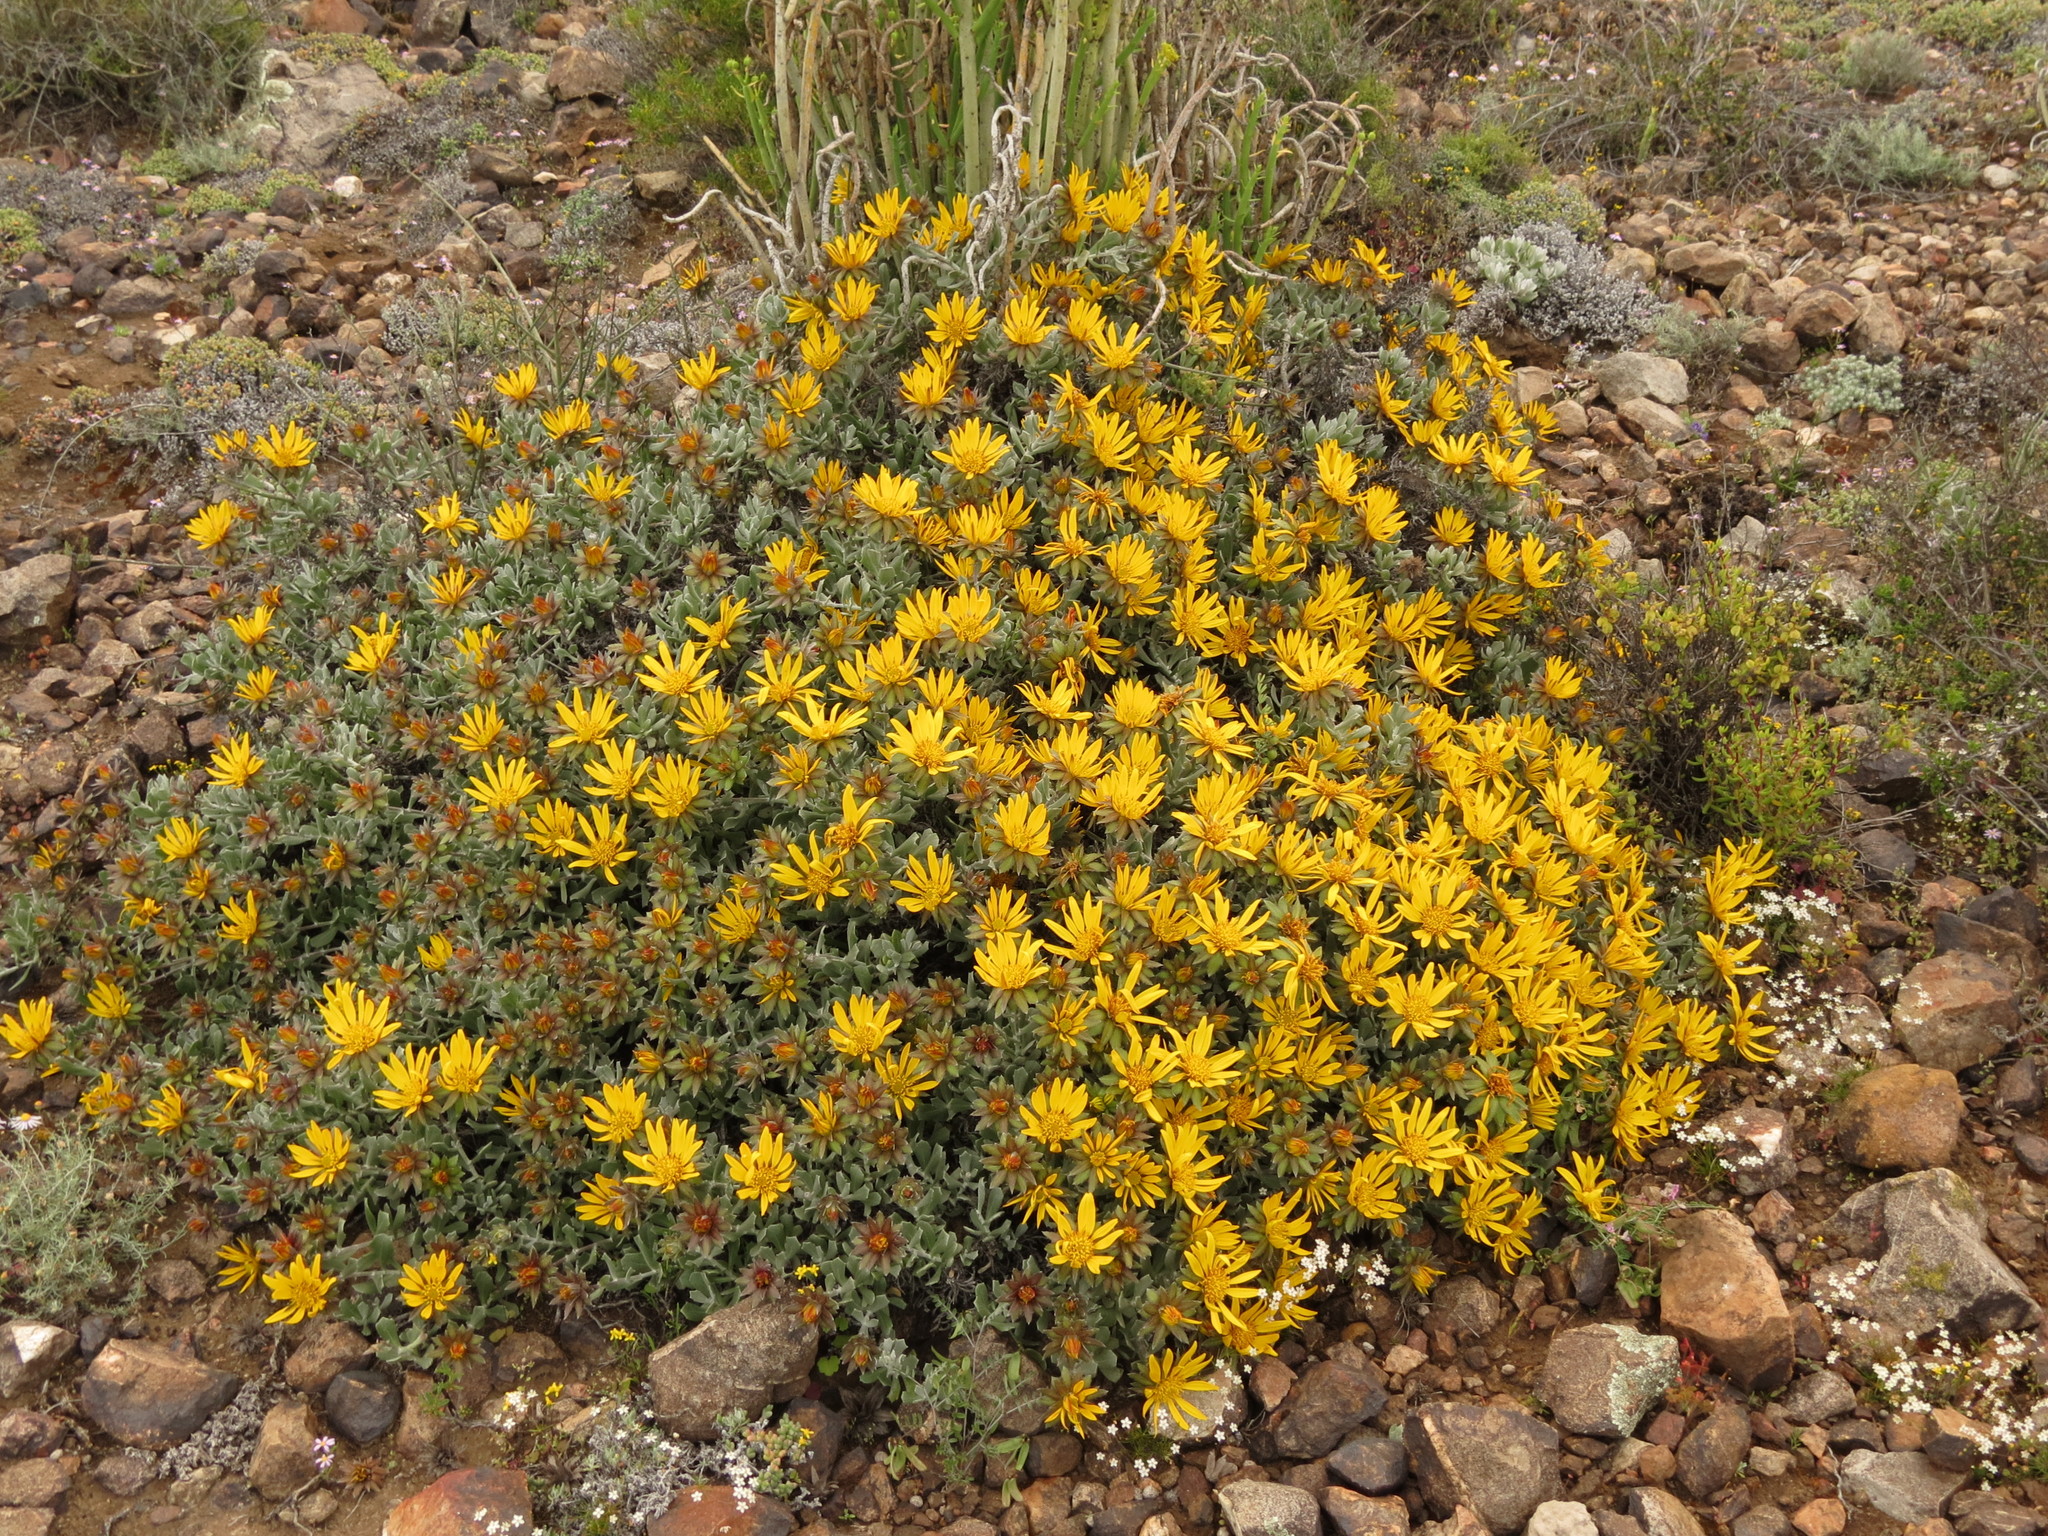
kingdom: Plantae
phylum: Tracheophyta
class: Magnoliopsida
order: Asterales
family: Asteraceae
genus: Berkheya
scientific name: Berkheya cuneata
